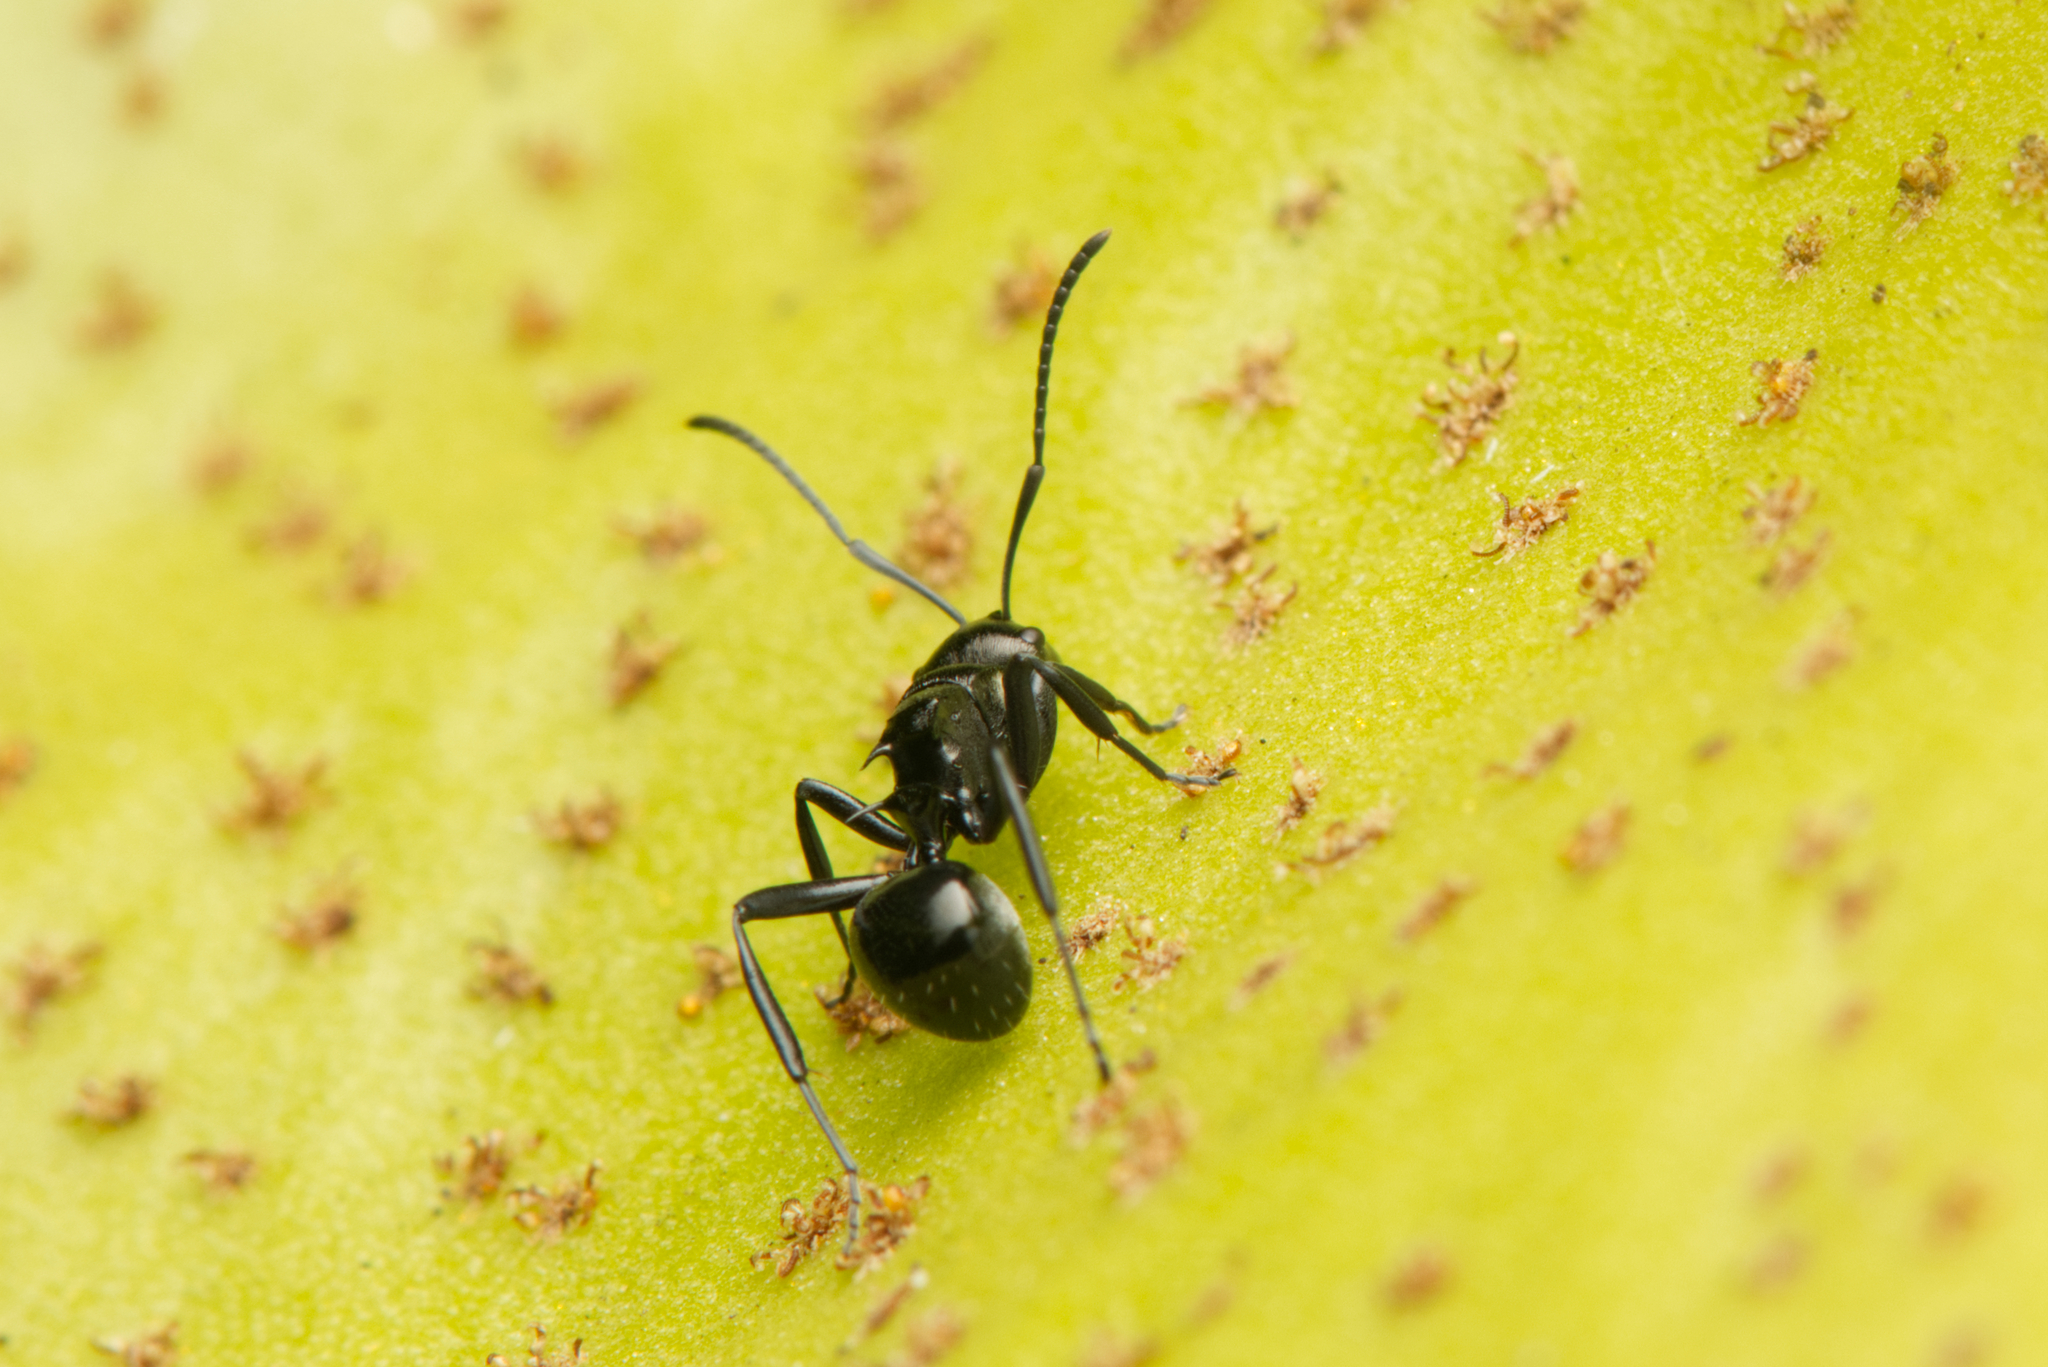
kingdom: Animalia
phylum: Arthropoda
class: Insecta
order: Hymenoptera
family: Formicidae
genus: Polyrhachis
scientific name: Polyrhachis clio
